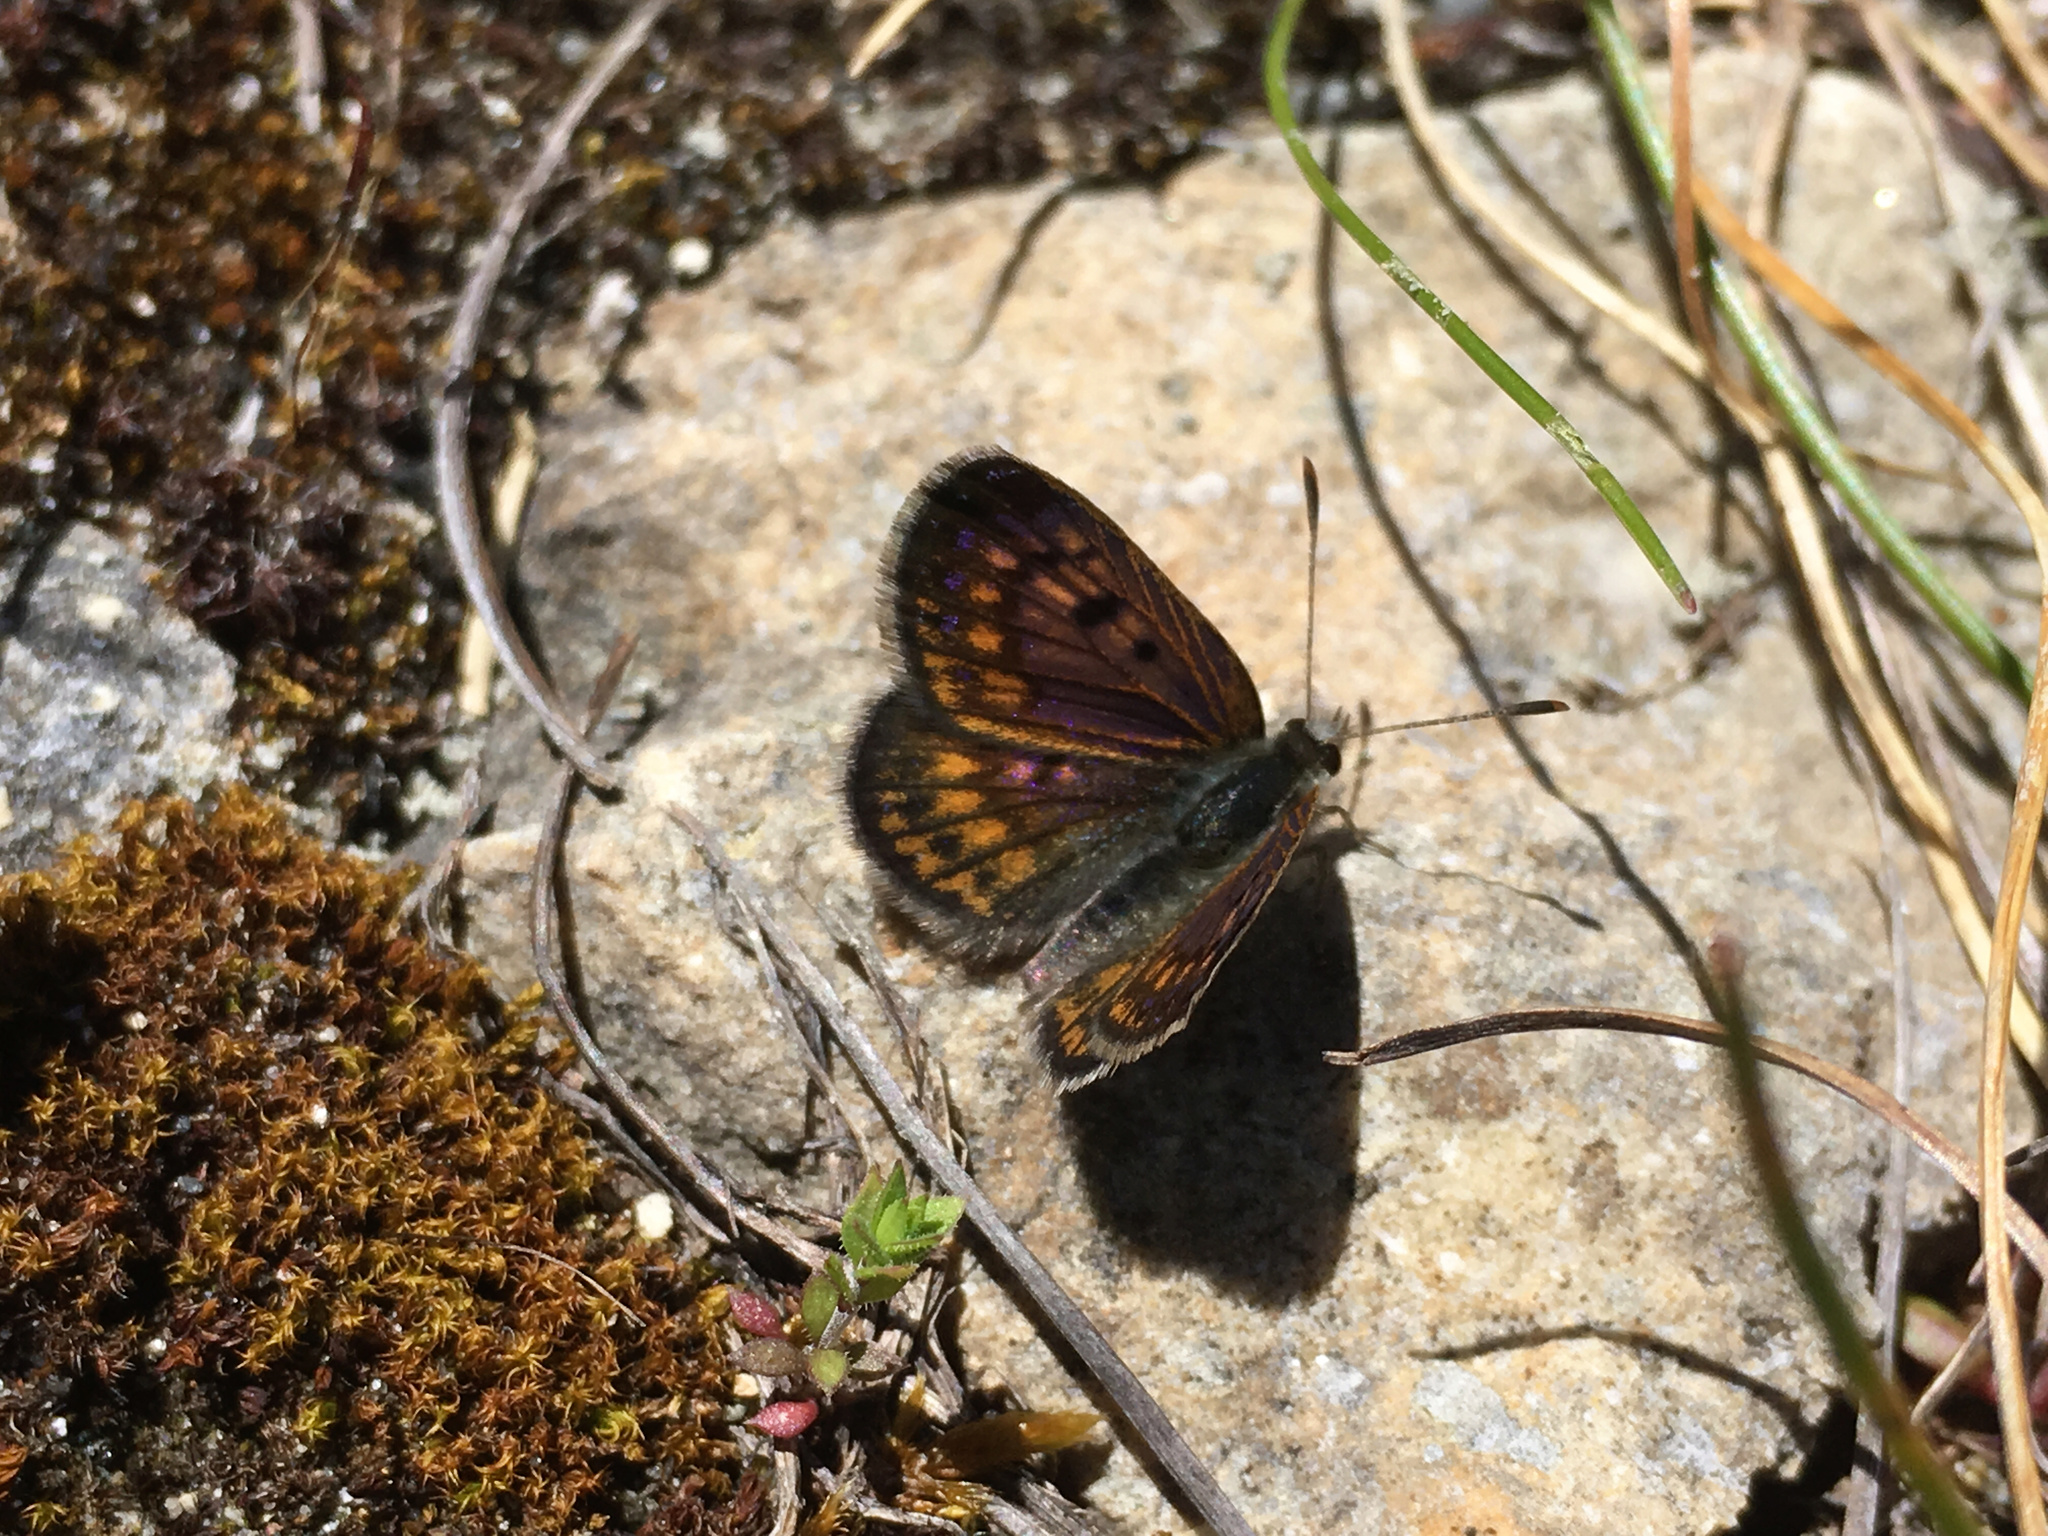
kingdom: Animalia
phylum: Arthropoda
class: Insecta
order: Lepidoptera
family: Lycaenidae
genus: Lycaena
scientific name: Lycaena boldenarum
